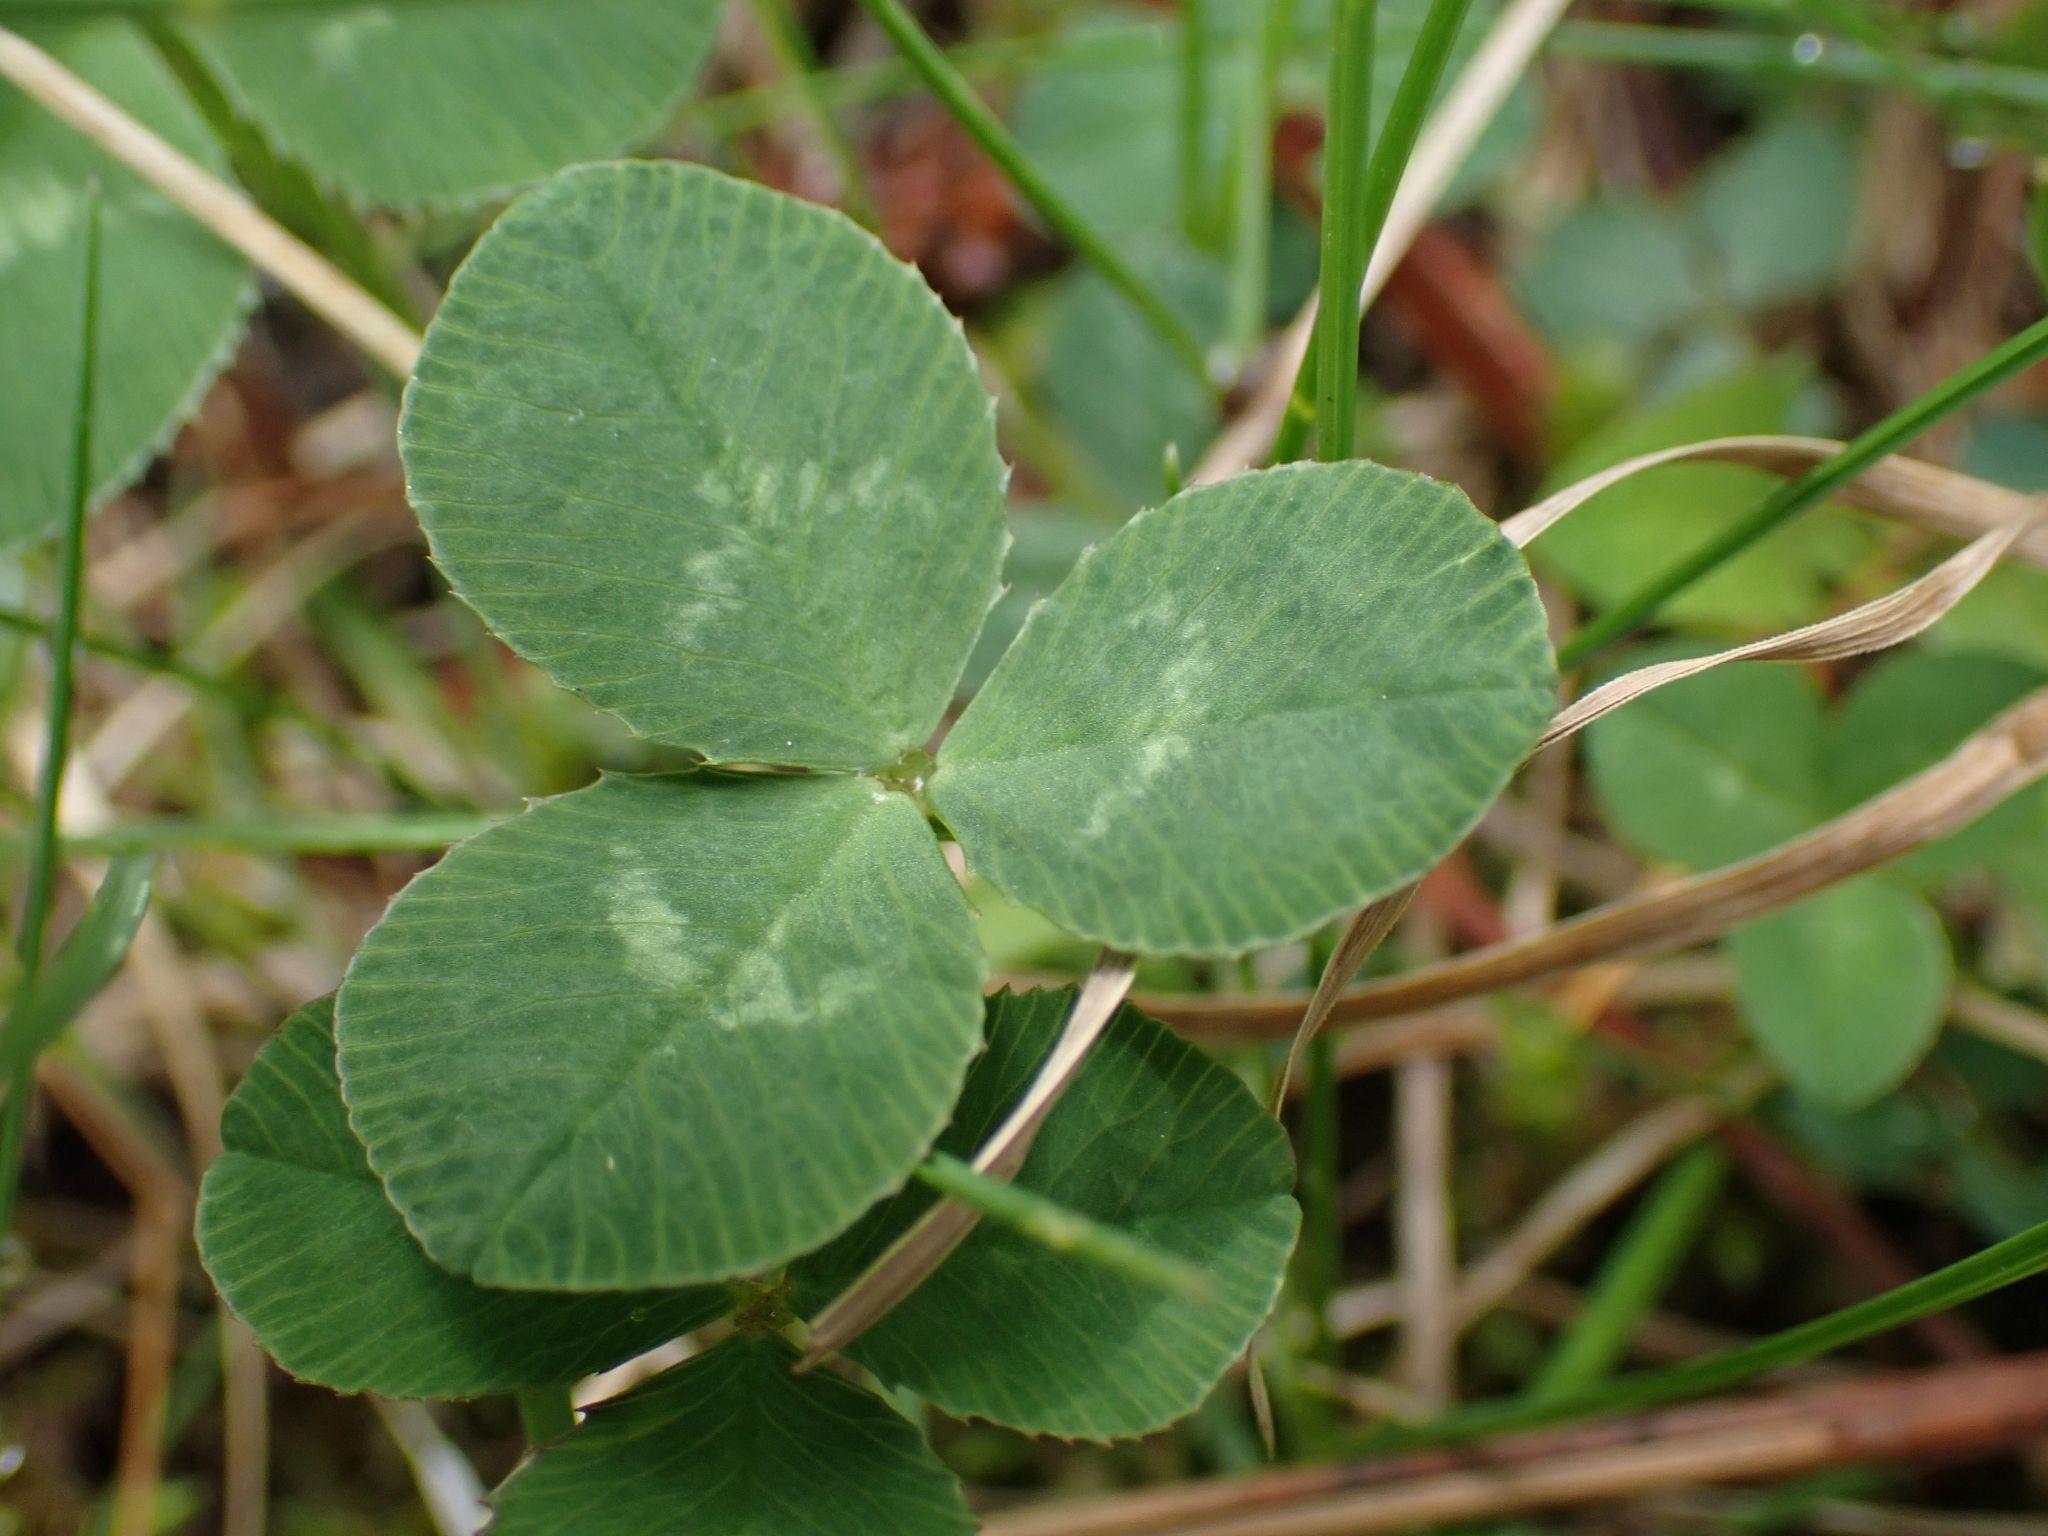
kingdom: Plantae
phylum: Tracheophyta
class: Magnoliopsida
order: Fabales
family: Fabaceae
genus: Trifolium
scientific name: Trifolium repens
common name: White clover
